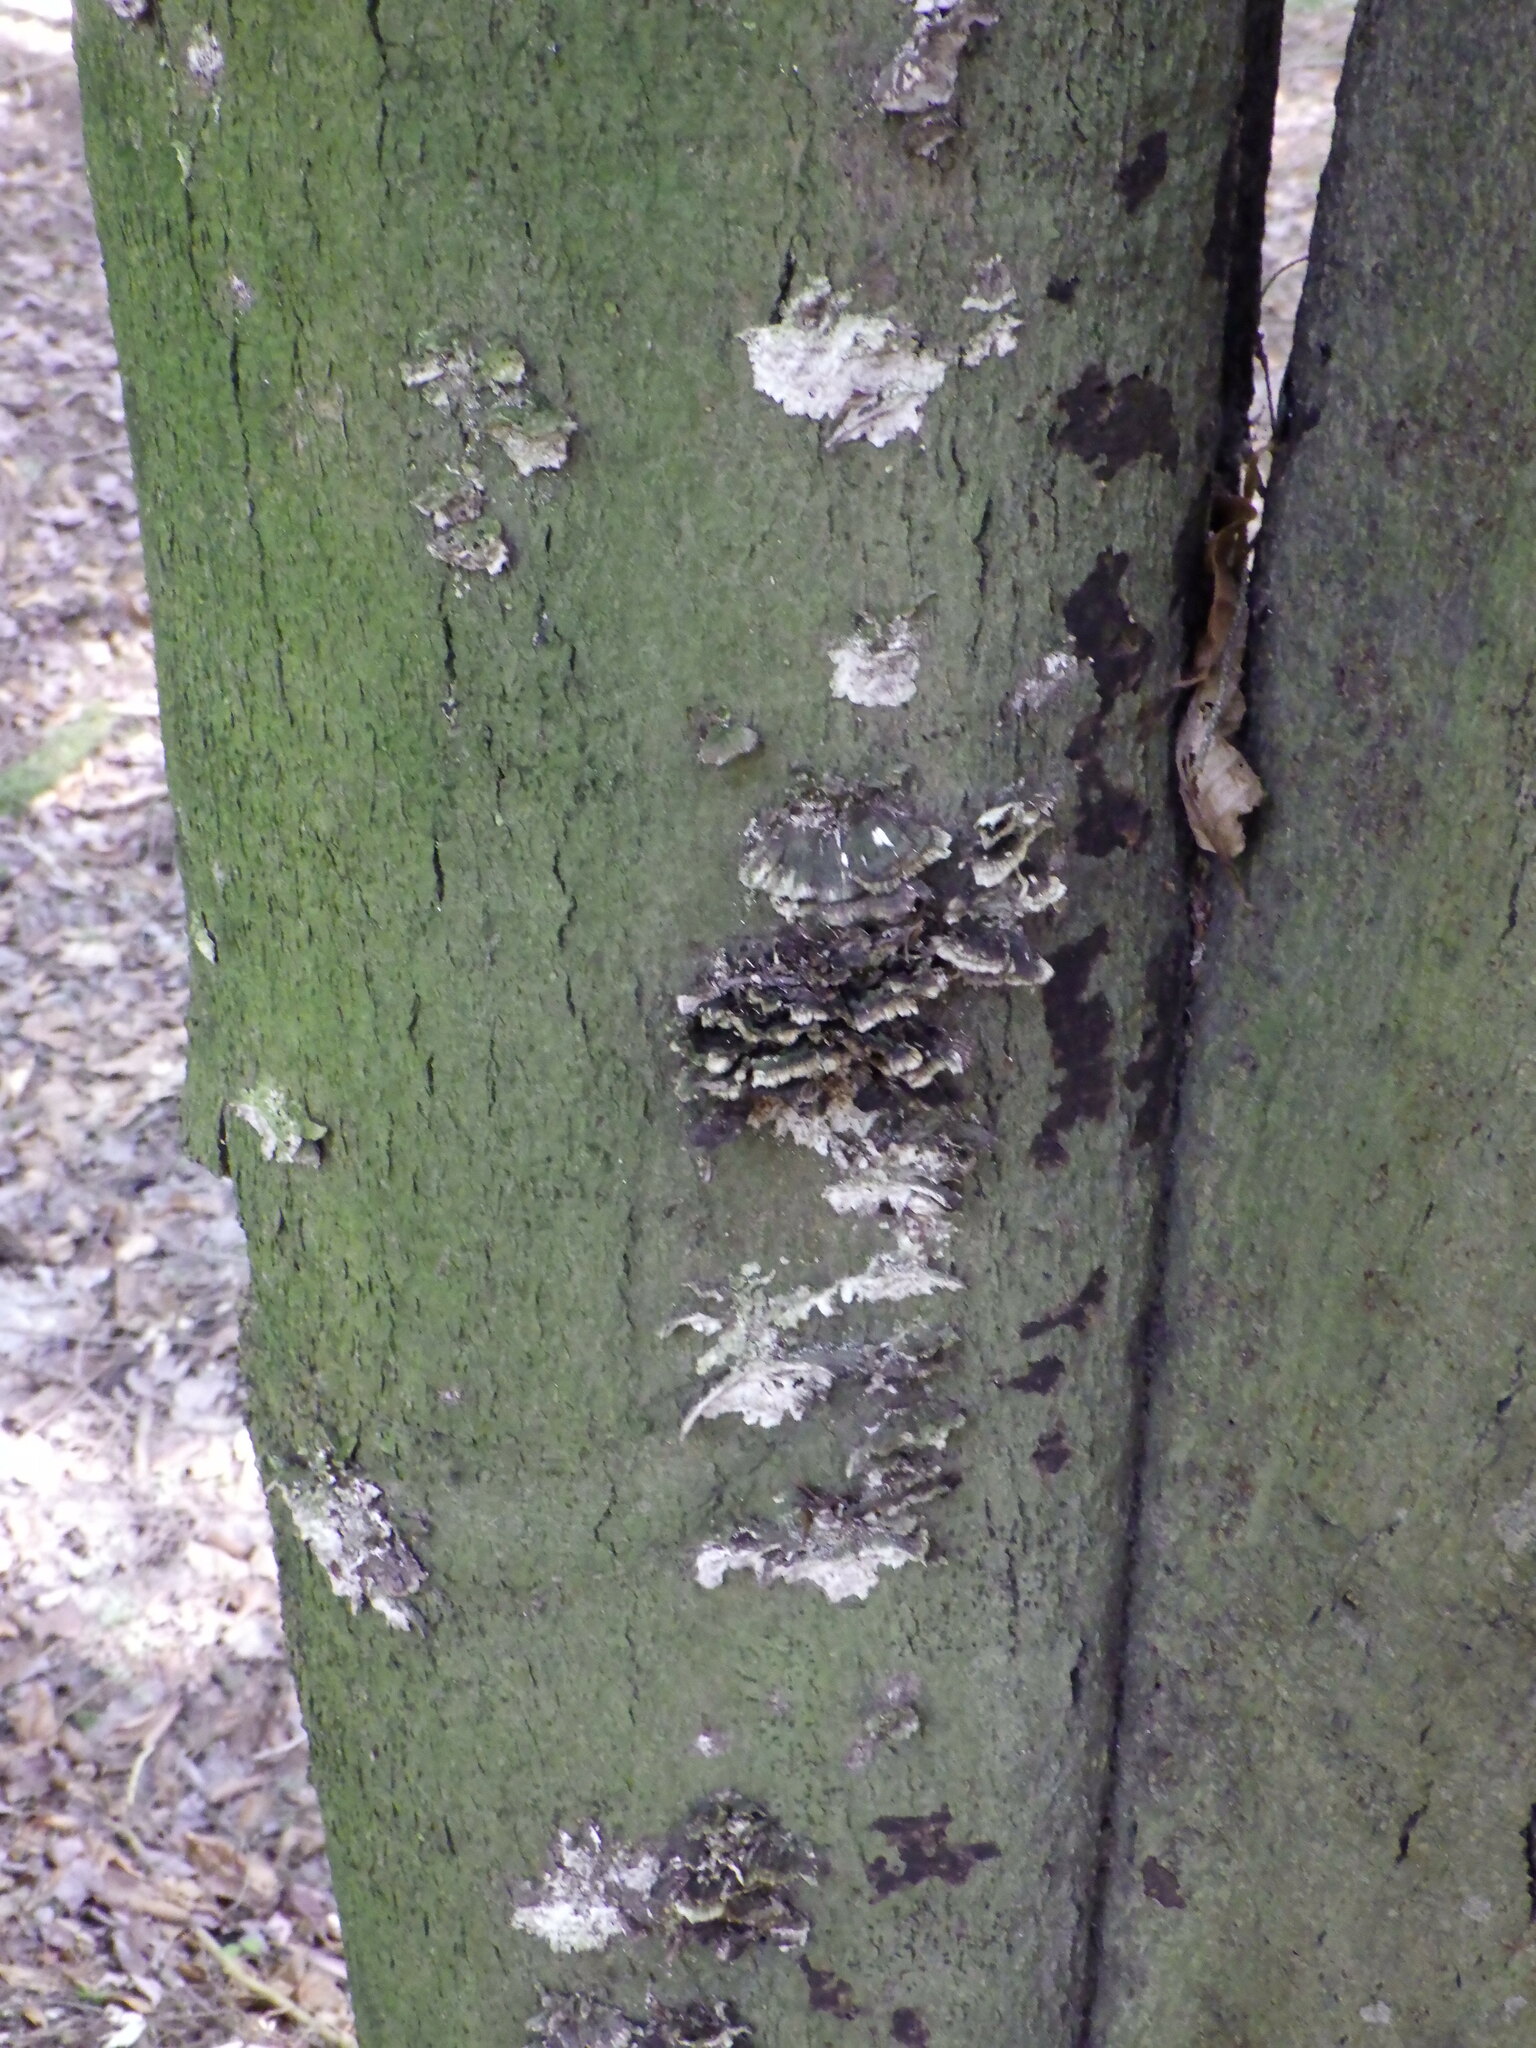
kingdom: Fungi
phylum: Basidiomycota
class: Agaricomycetes
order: Polyporales
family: Polyporaceae
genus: Trametes
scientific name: Trametes versicolor
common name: Turkeytail
